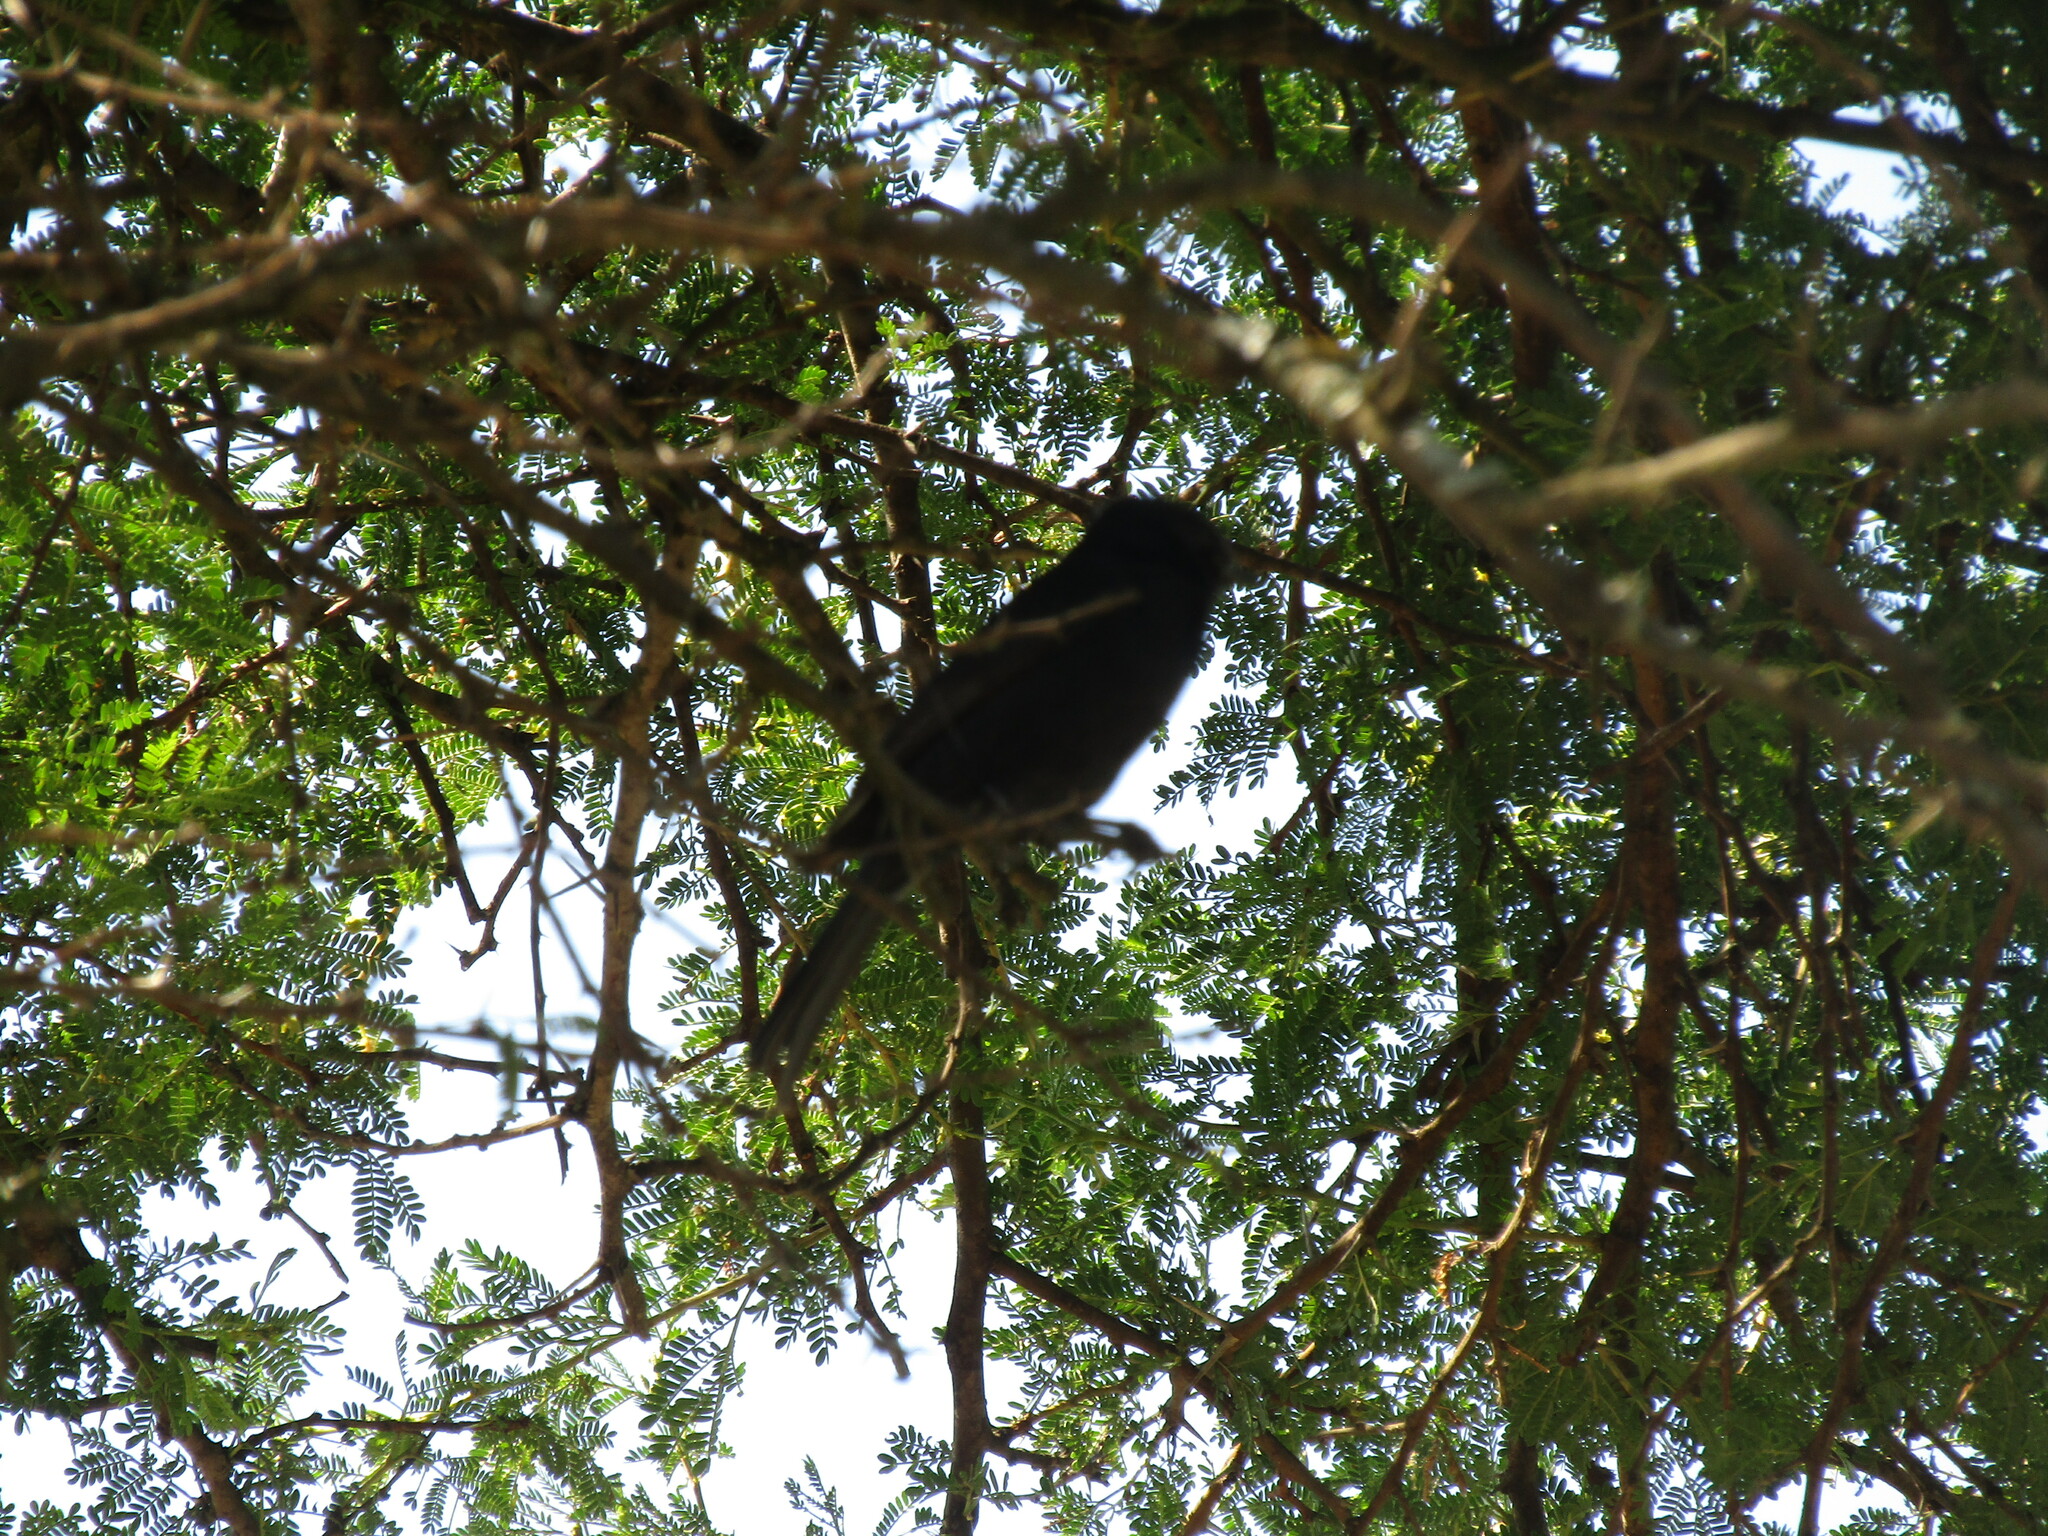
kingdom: Animalia
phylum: Chordata
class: Aves
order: Passeriformes
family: Dicruridae
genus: Dicrurus
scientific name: Dicrurus adsimilis
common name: Fork-tailed drongo
